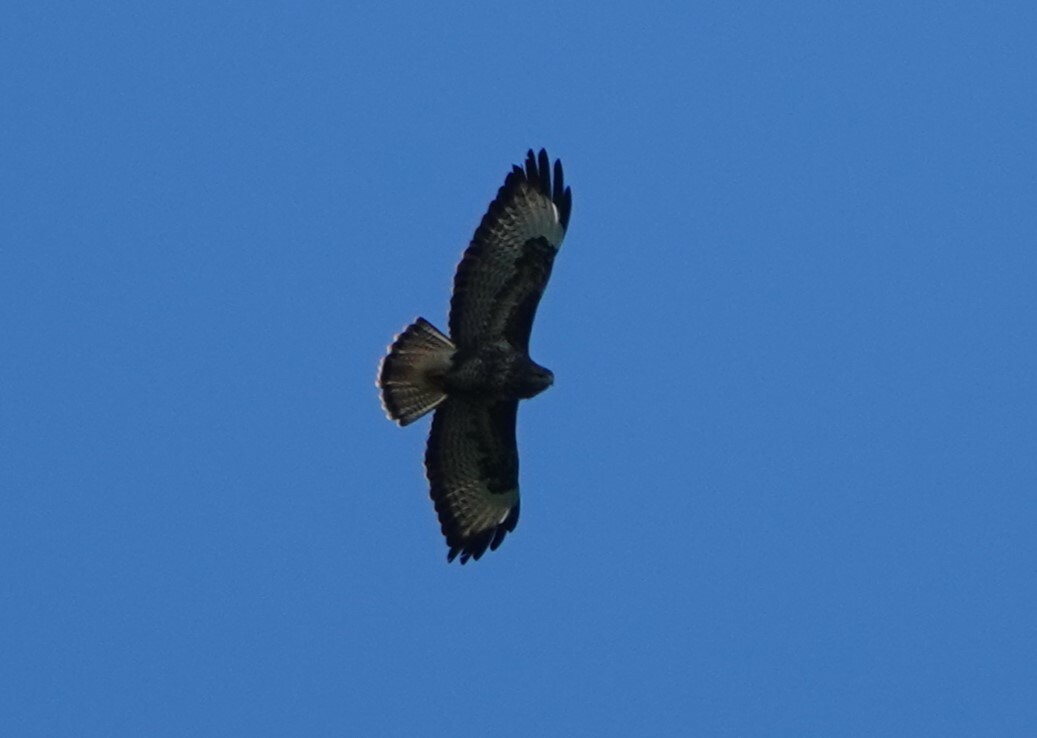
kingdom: Animalia
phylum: Chordata
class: Aves
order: Accipitriformes
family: Accipitridae
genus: Buteo
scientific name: Buteo buteo
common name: Common buzzard
